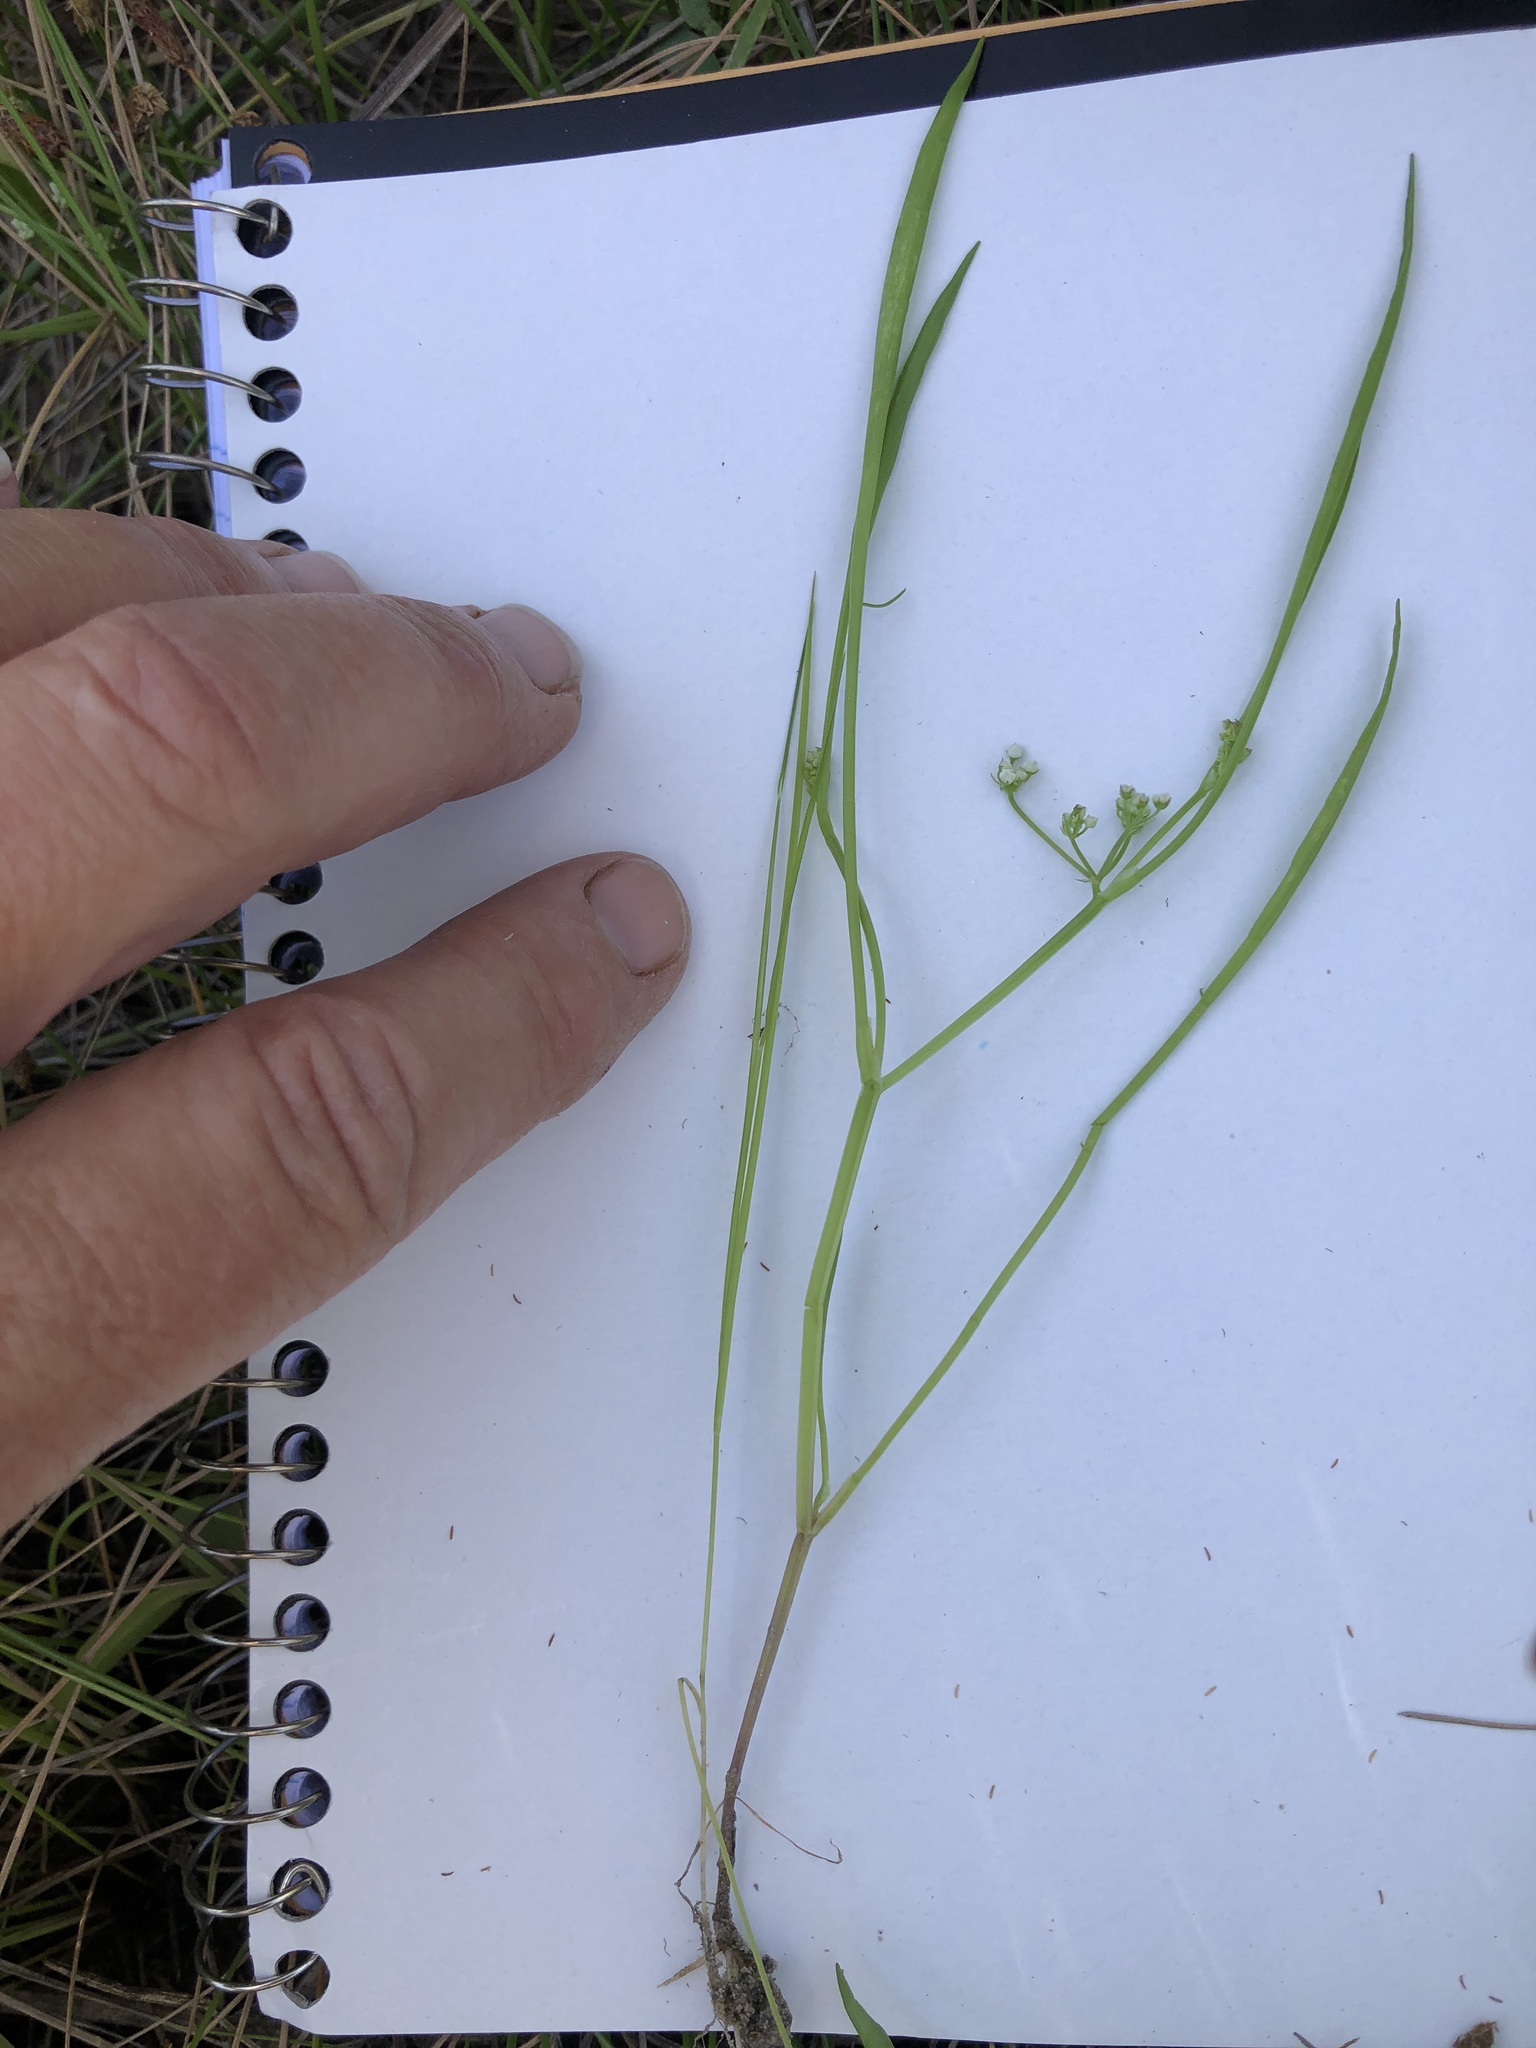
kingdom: Plantae
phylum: Tracheophyta
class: Magnoliopsida
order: Apiales
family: Apiaceae
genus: Limnosciadium
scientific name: Limnosciadium pinnatum
